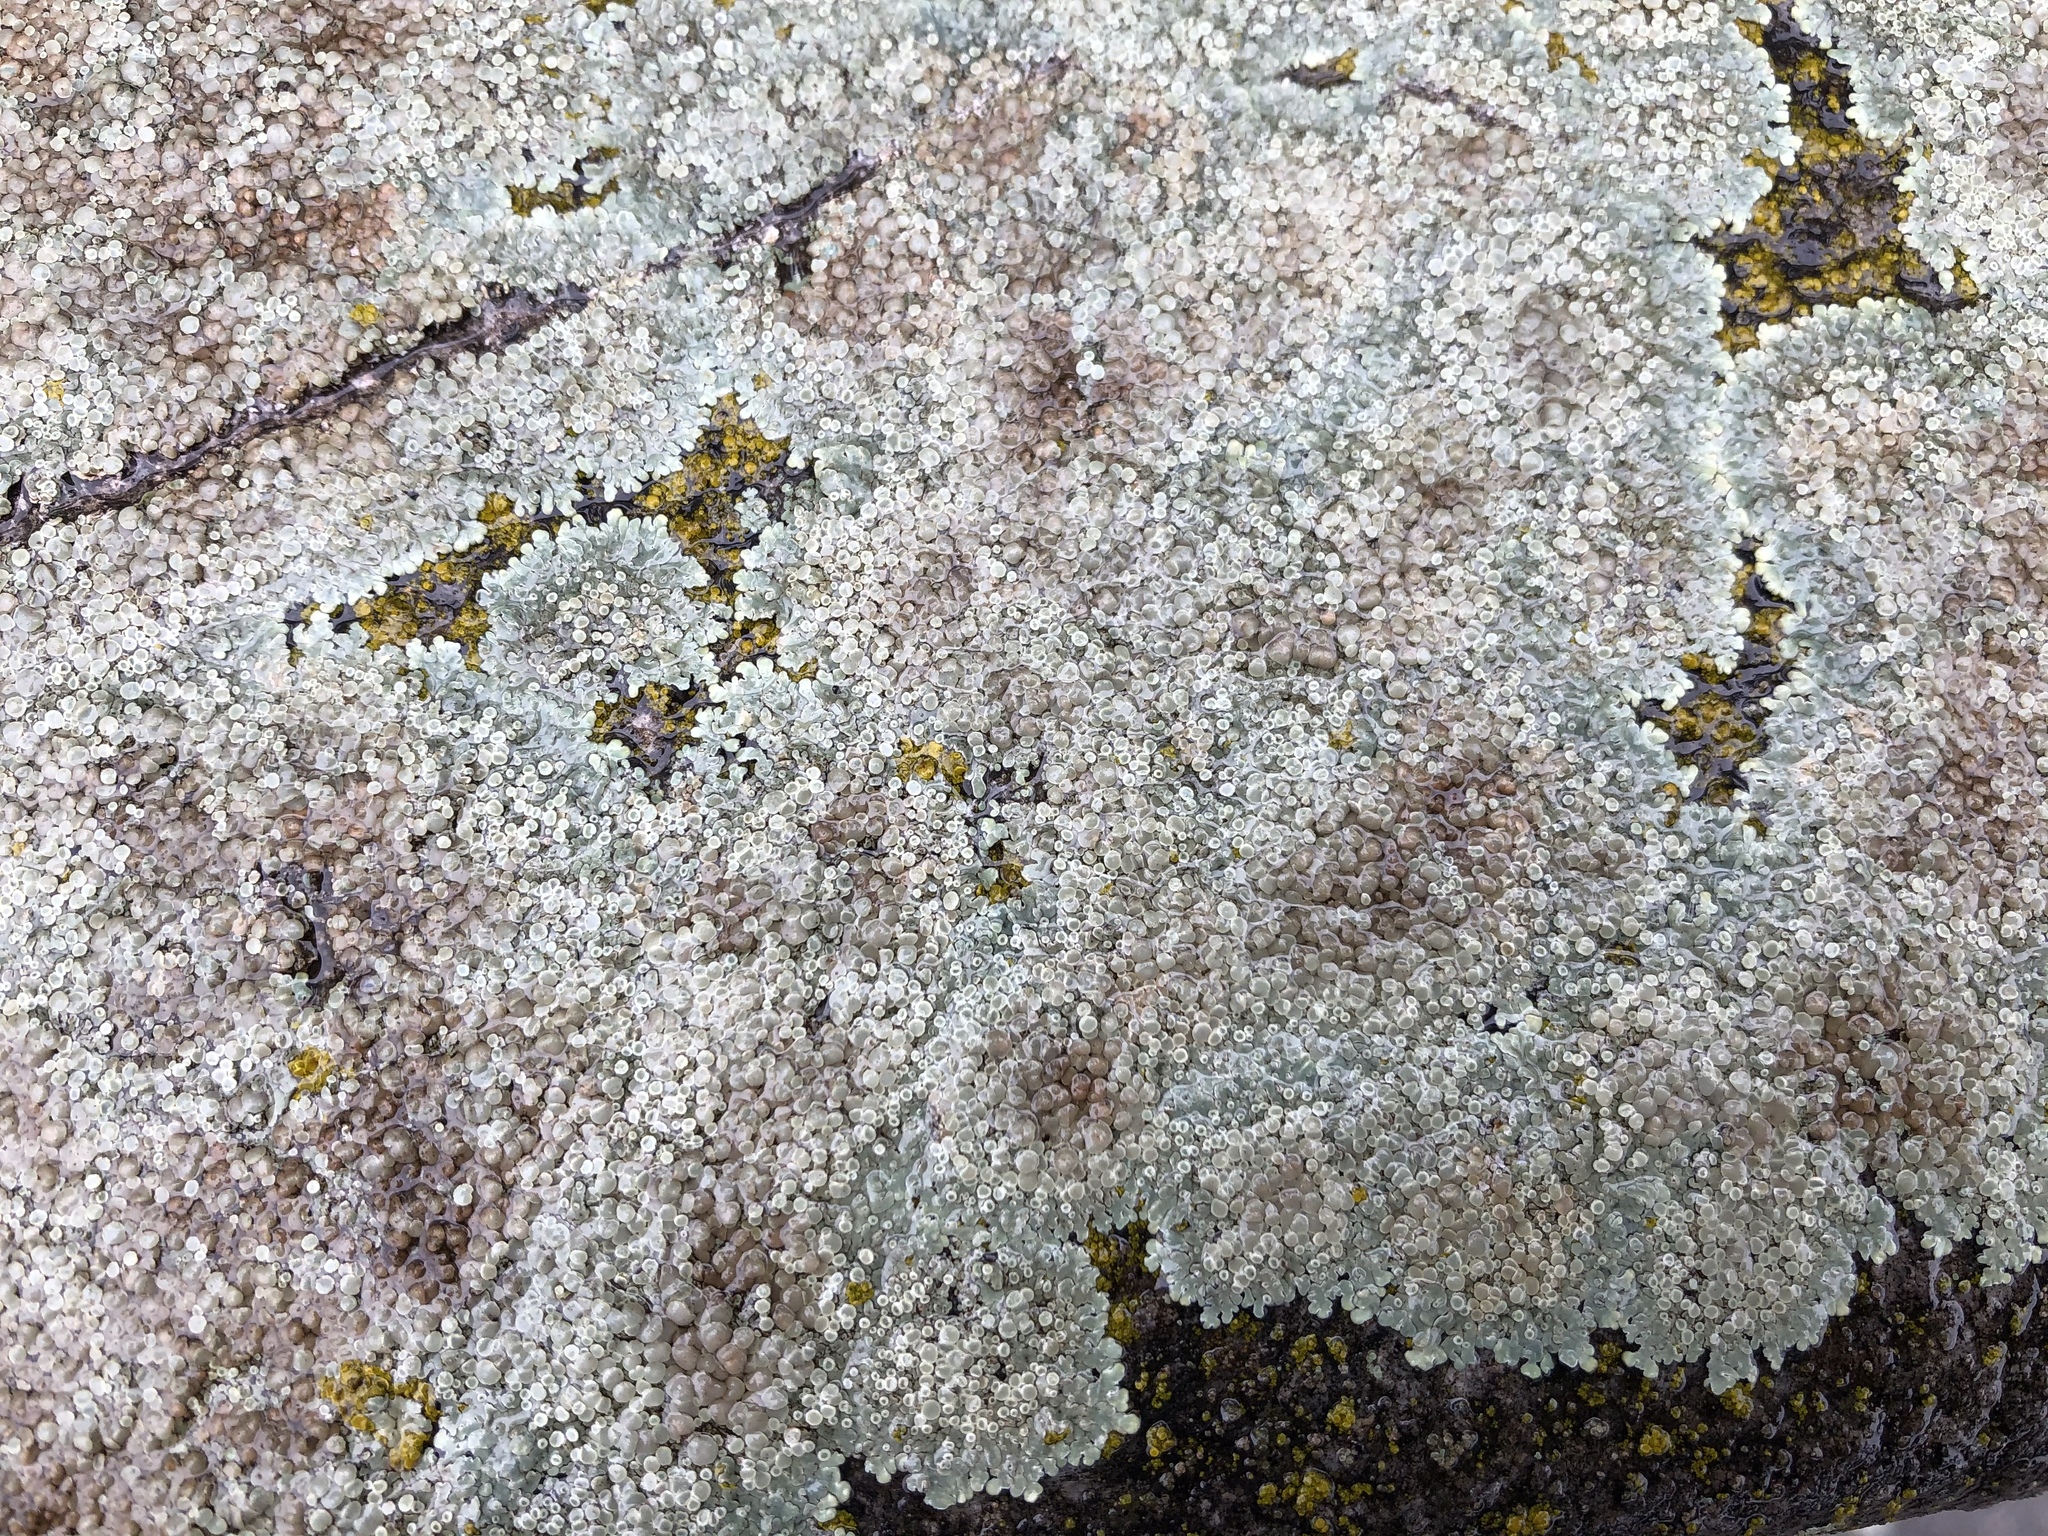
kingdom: Fungi
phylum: Ascomycota
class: Lecanoromycetes
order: Lecanorales
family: Lecanoraceae
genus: Protoparmeliopsis
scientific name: Protoparmeliopsis muralis
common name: Stonewall rim lichen
